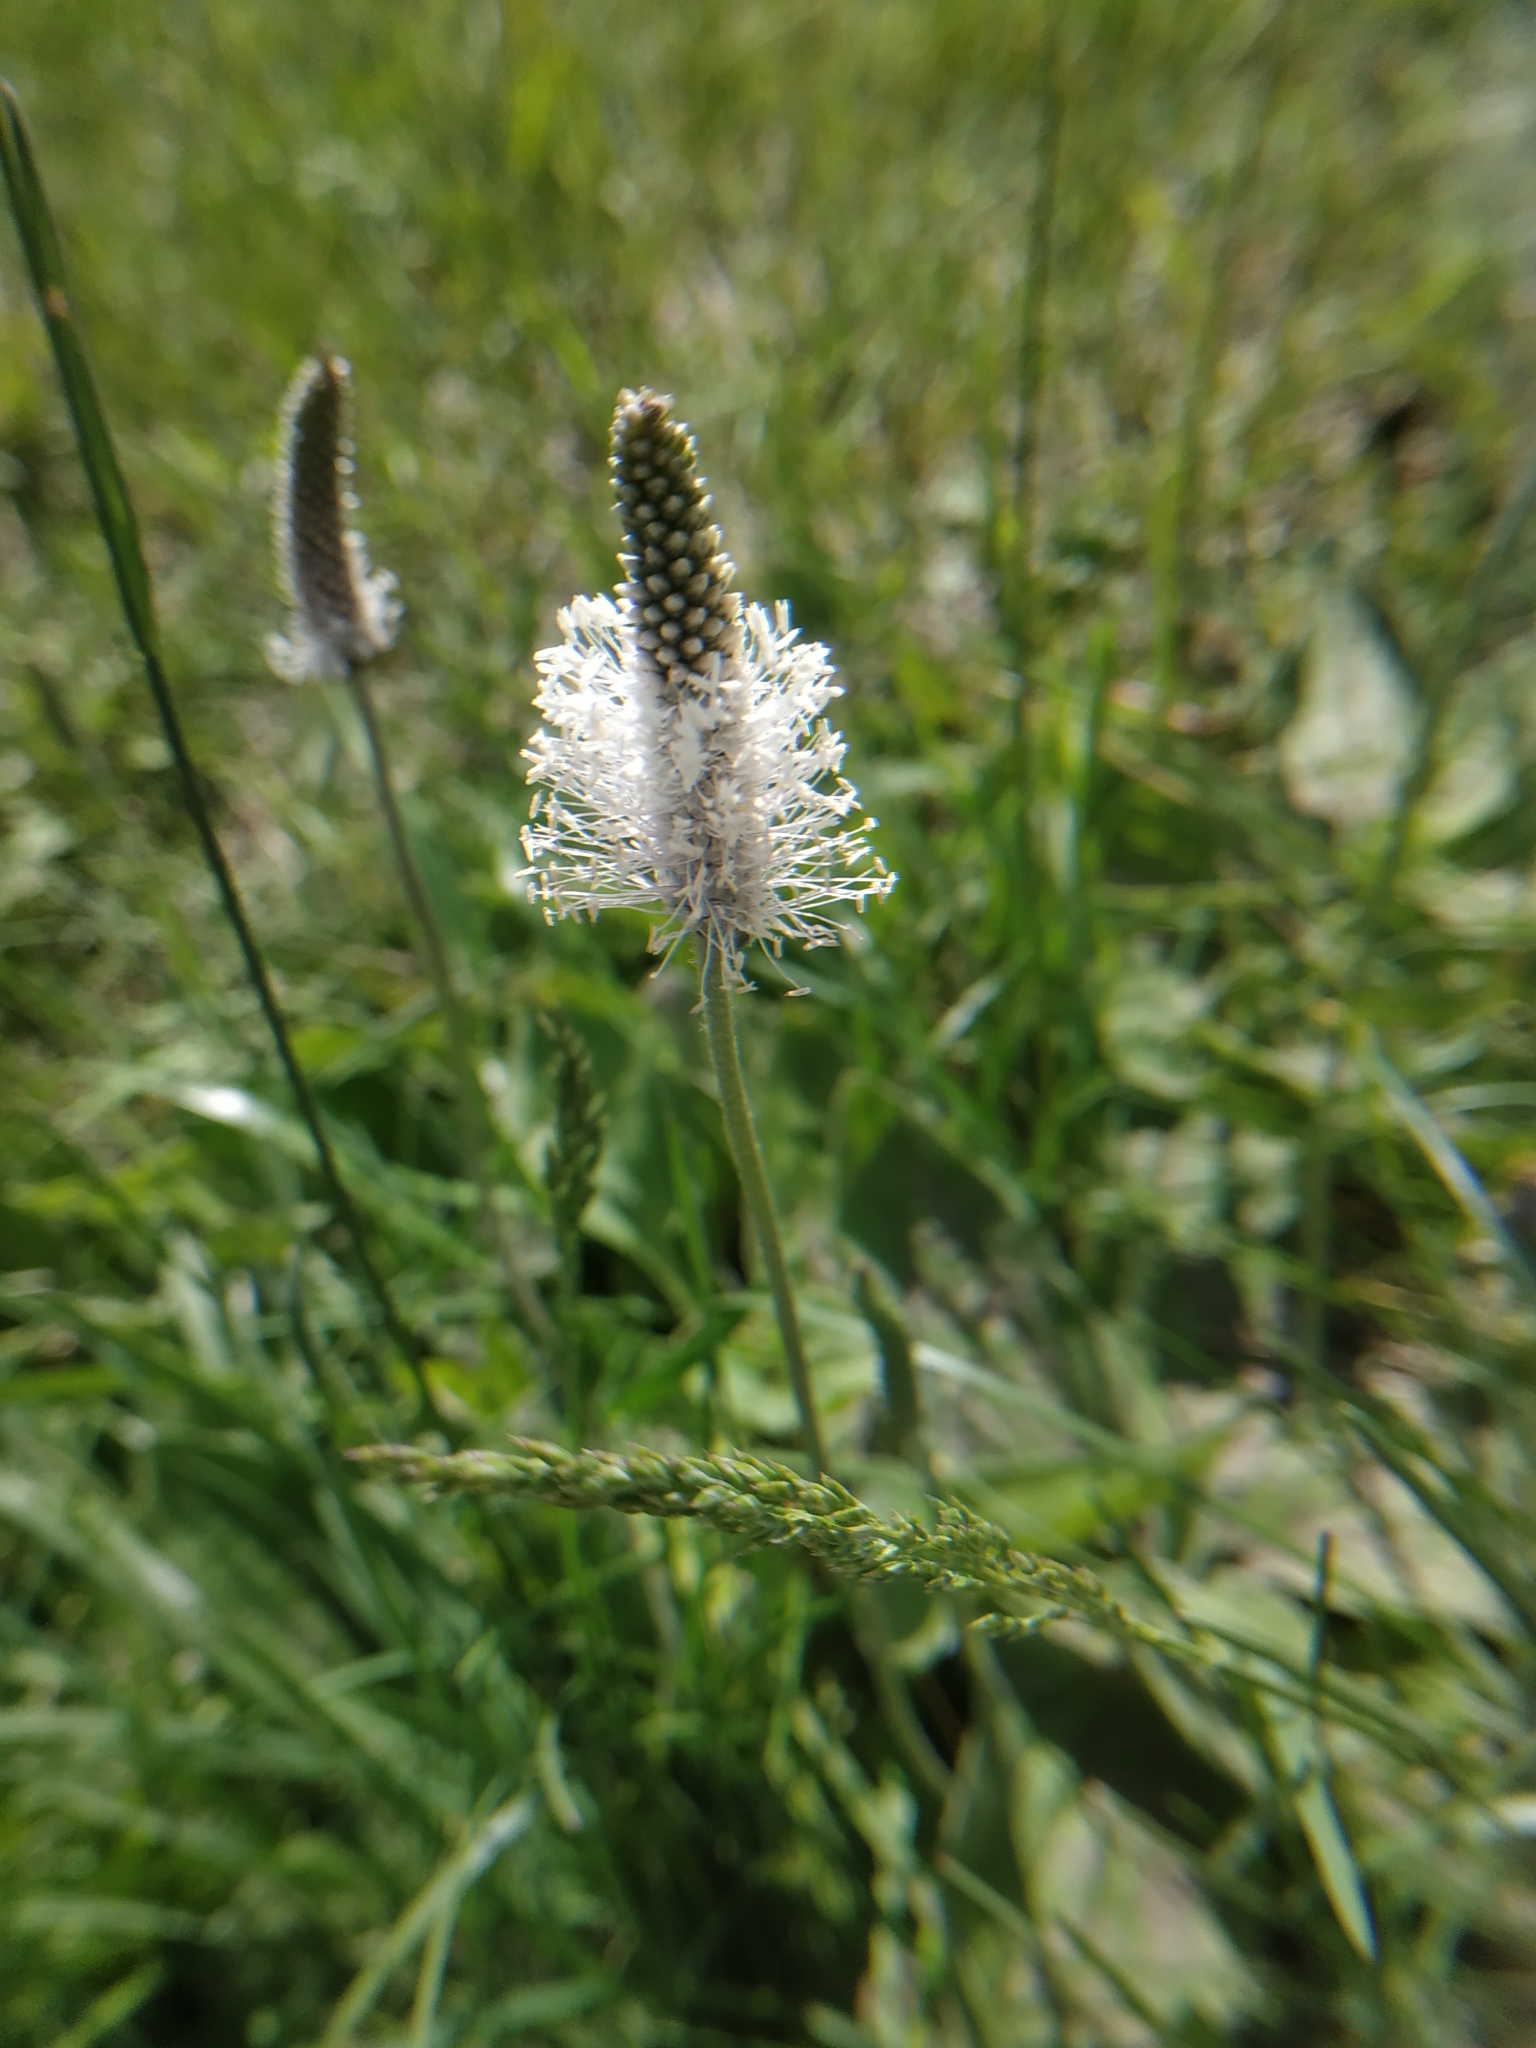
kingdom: Plantae
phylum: Tracheophyta
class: Magnoliopsida
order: Lamiales
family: Plantaginaceae
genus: Plantago
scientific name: Plantago media
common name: Hoary plantain
